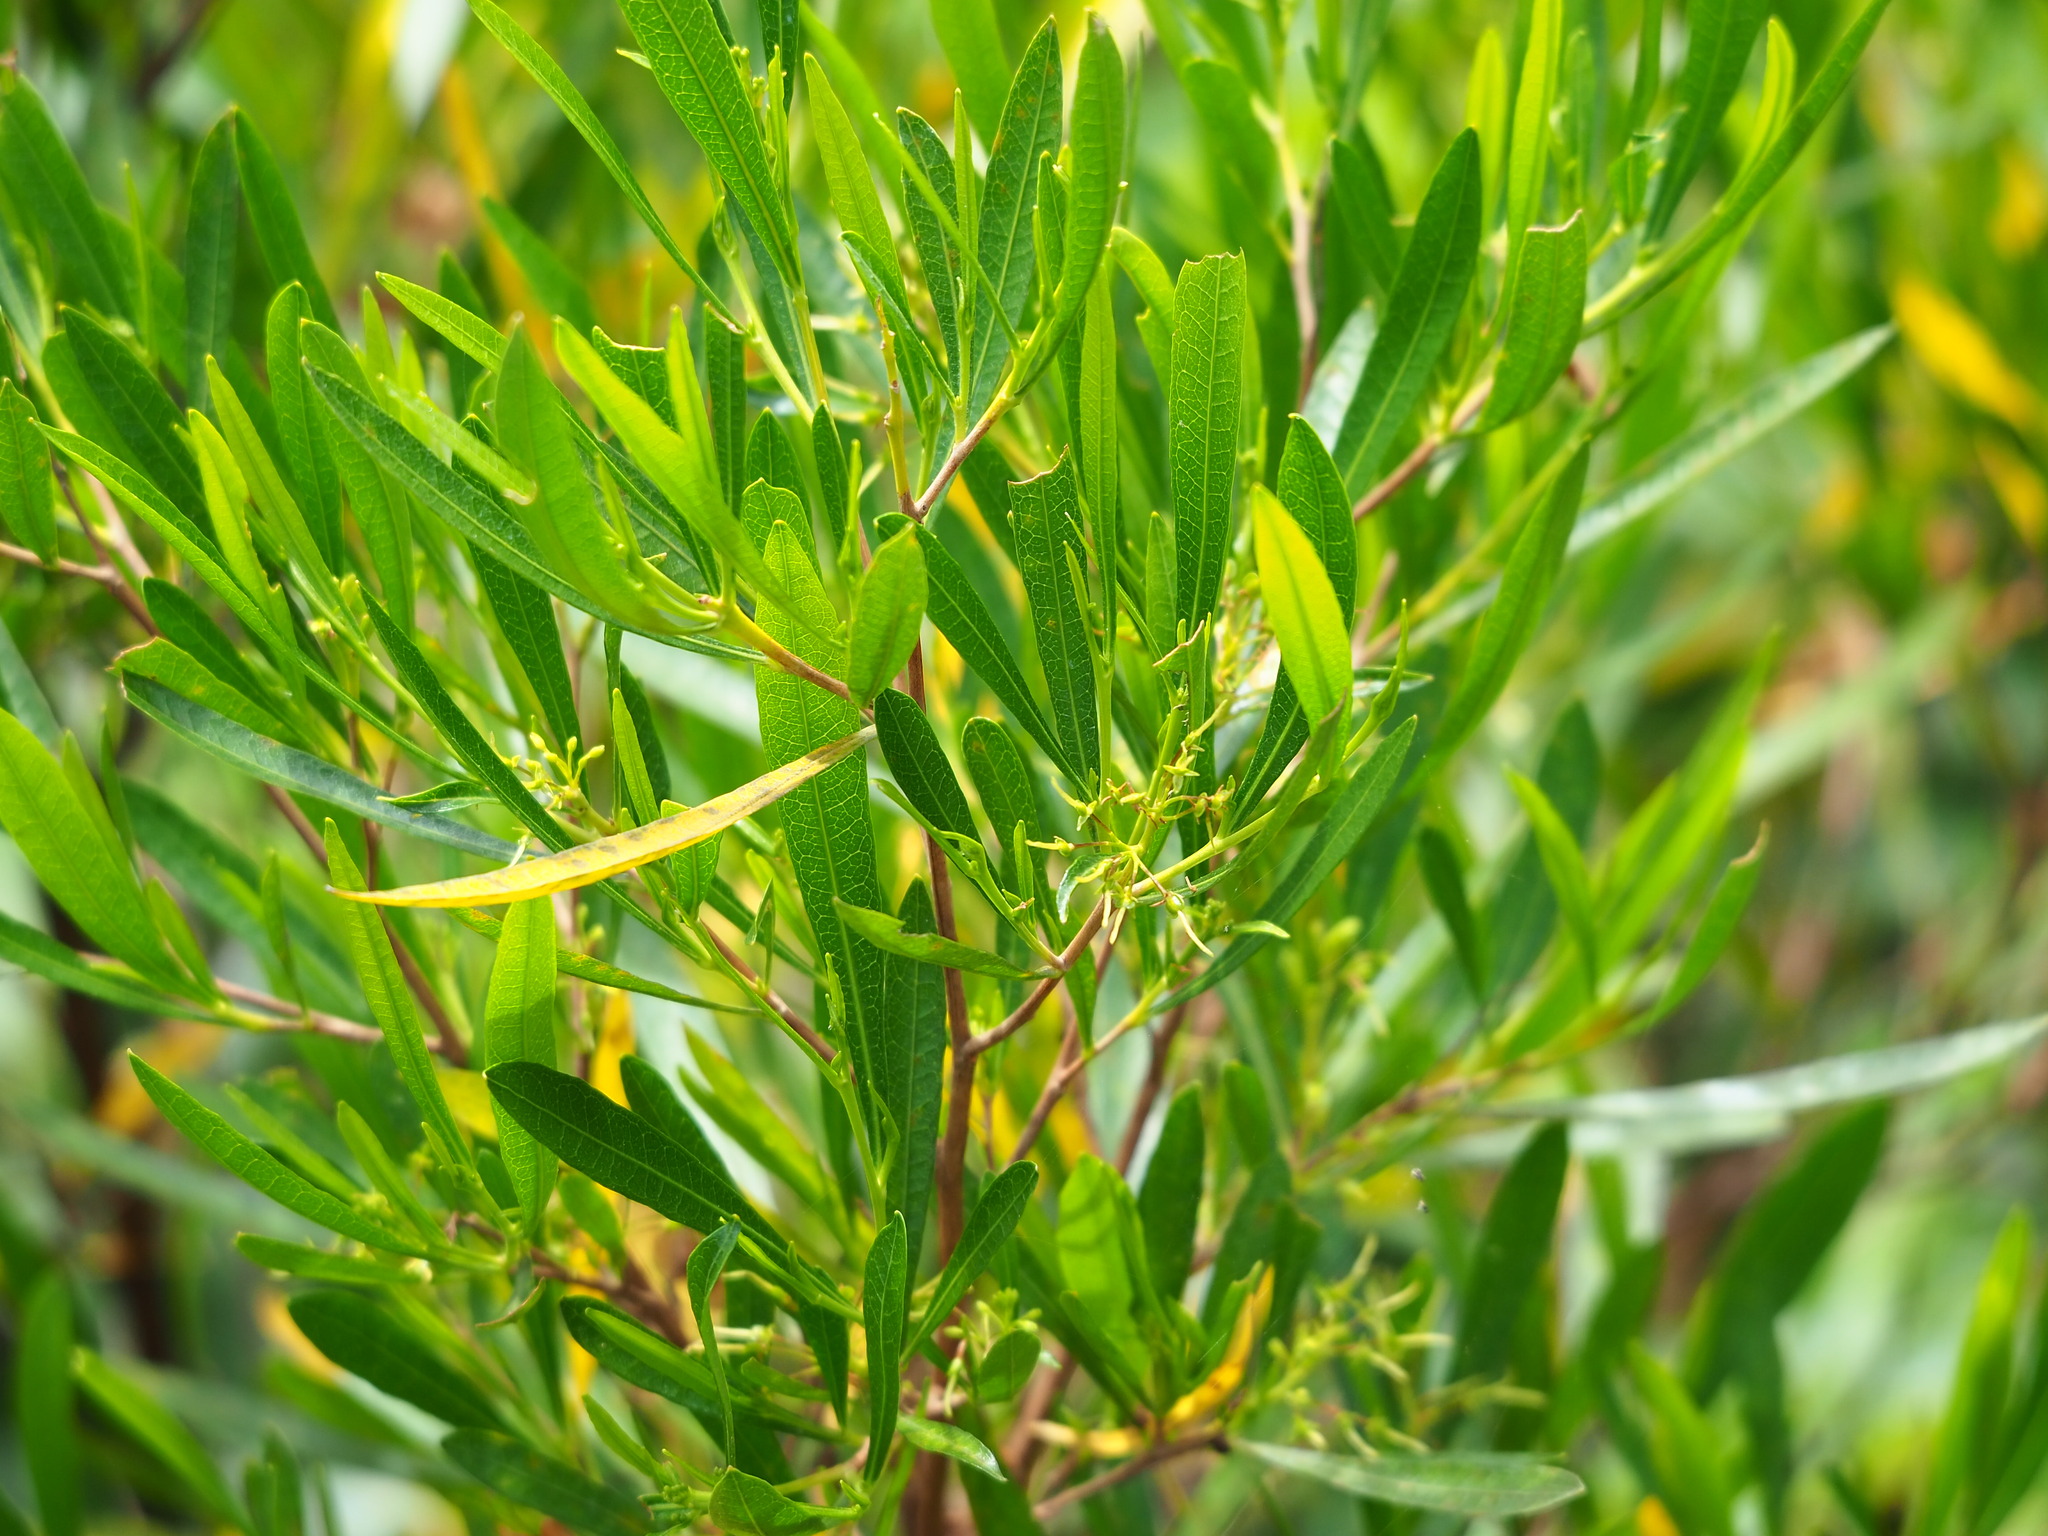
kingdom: Plantae
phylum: Tracheophyta
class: Magnoliopsida
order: Sapindales
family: Sapindaceae
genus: Dodonaea
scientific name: Dodonaea viscosa
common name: Hopbush
